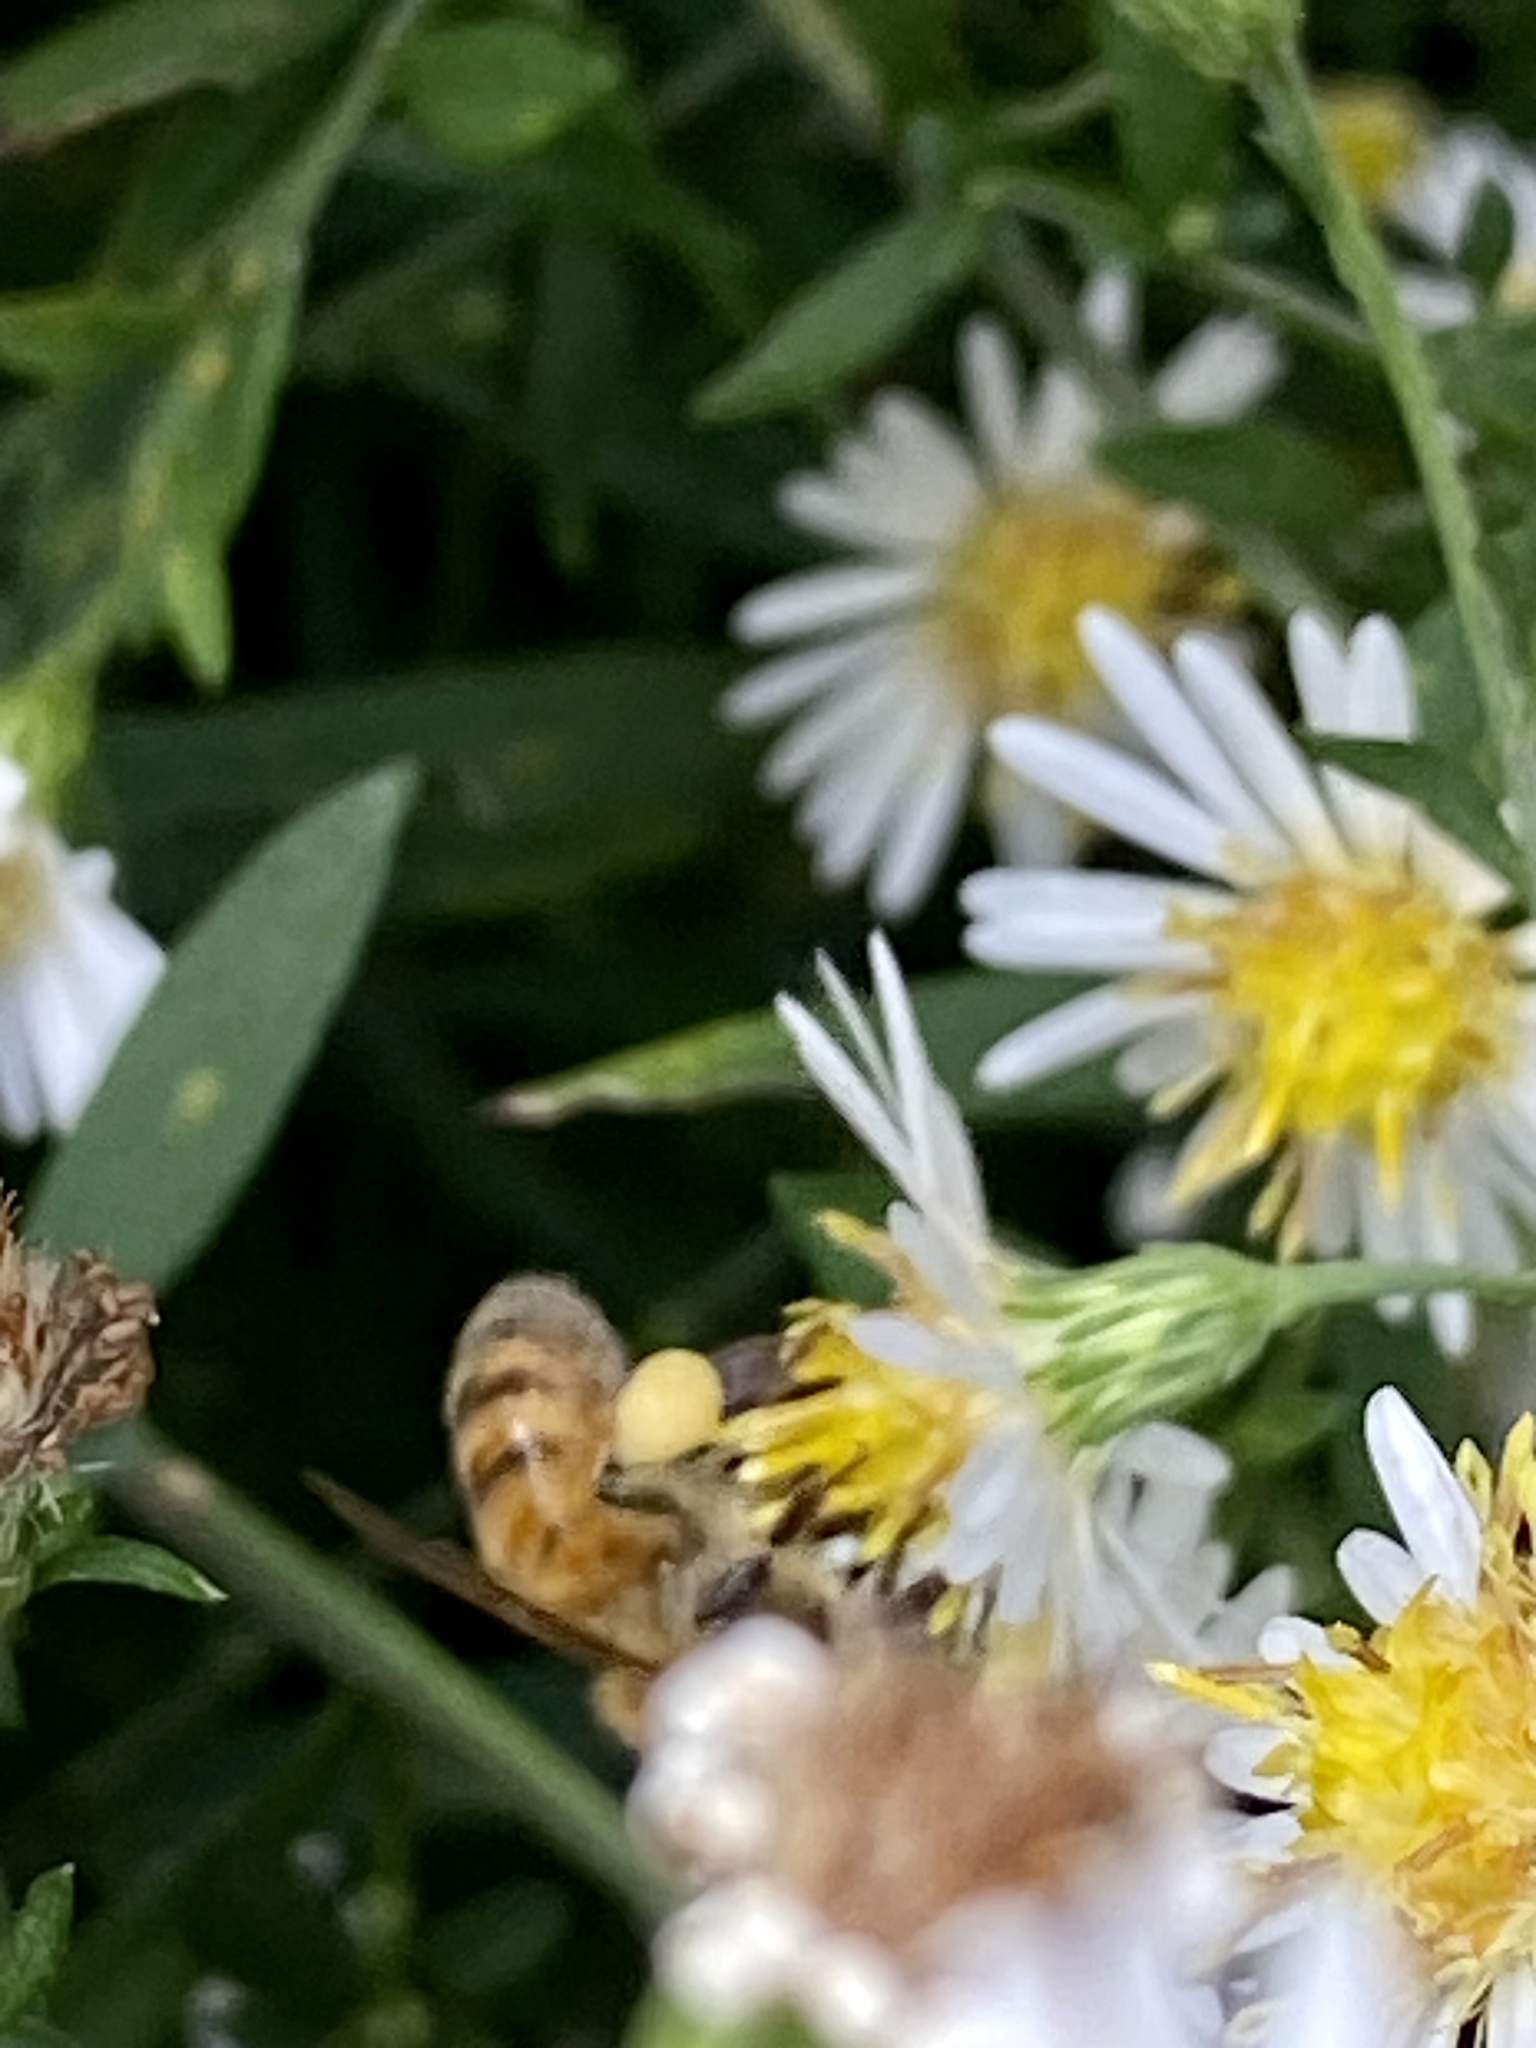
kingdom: Animalia
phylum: Arthropoda
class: Insecta
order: Hymenoptera
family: Apidae
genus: Apis
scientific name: Apis mellifera
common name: Honey bee
